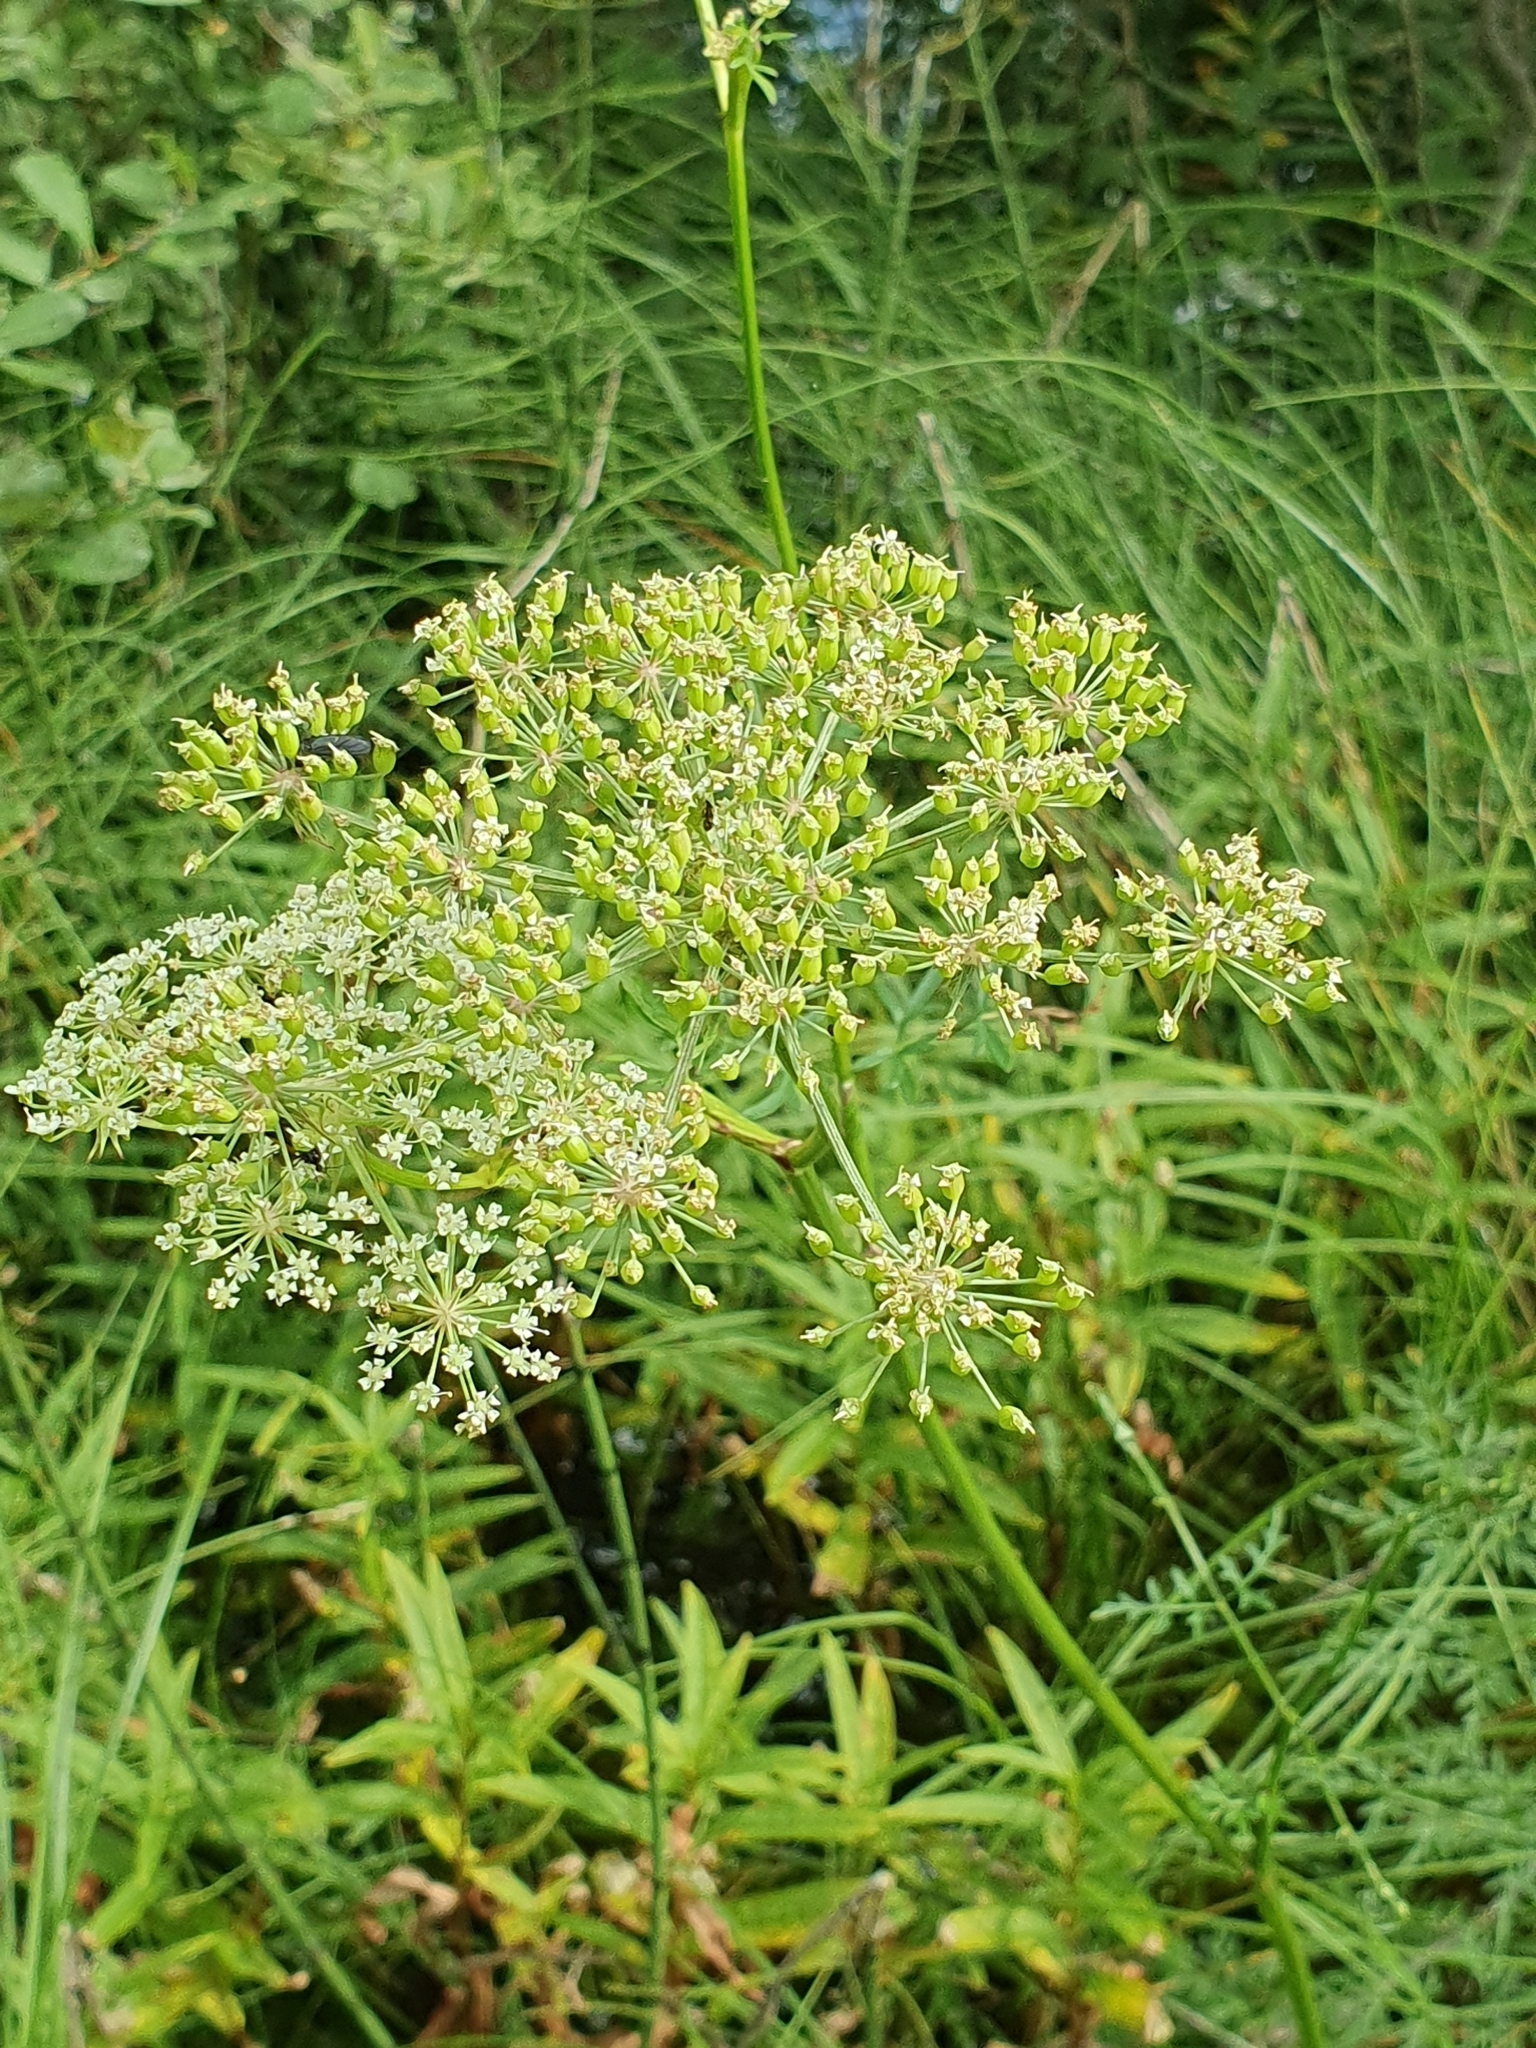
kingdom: Plantae
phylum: Tracheophyta
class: Magnoliopsida
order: Apiales
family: Apiaceae
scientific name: Apiaceae
